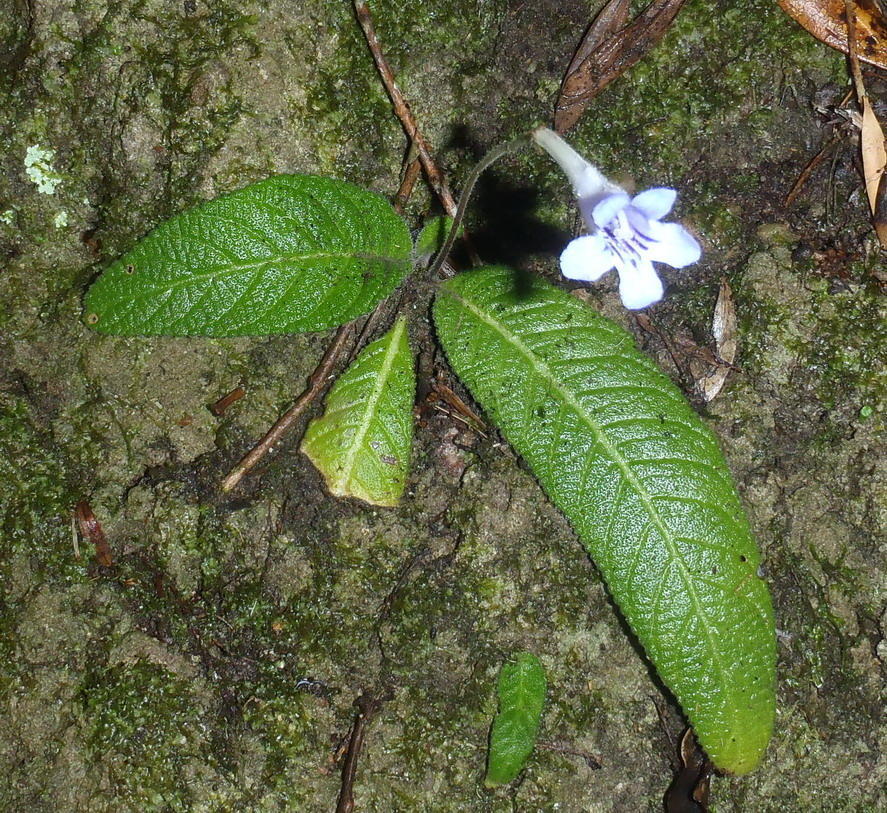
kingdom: Plantae
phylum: Tracheophyta
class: Magnoliopsida
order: Lamiales
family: Gesneriaceae
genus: Streptocarpus
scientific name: Streptocarpus rexii
